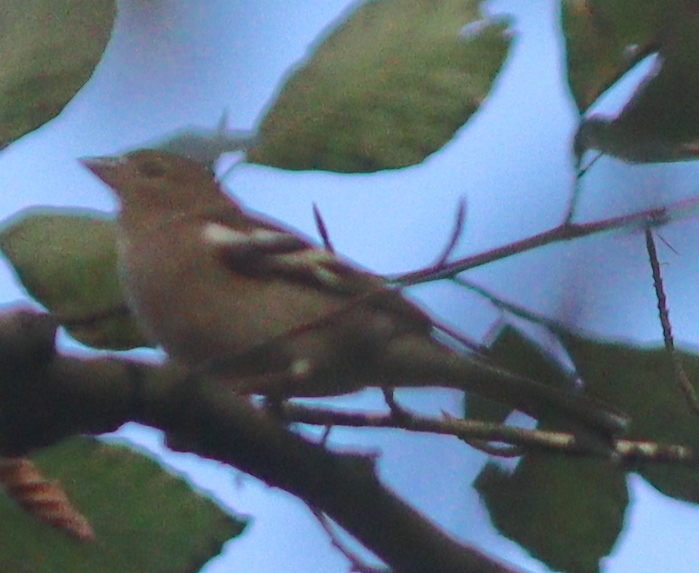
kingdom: Animalia
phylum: Chordata
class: Aves
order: Passeriformes
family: Fringillidae
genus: Fringilla
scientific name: Fringilla coelebs
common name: Common chaffinch
